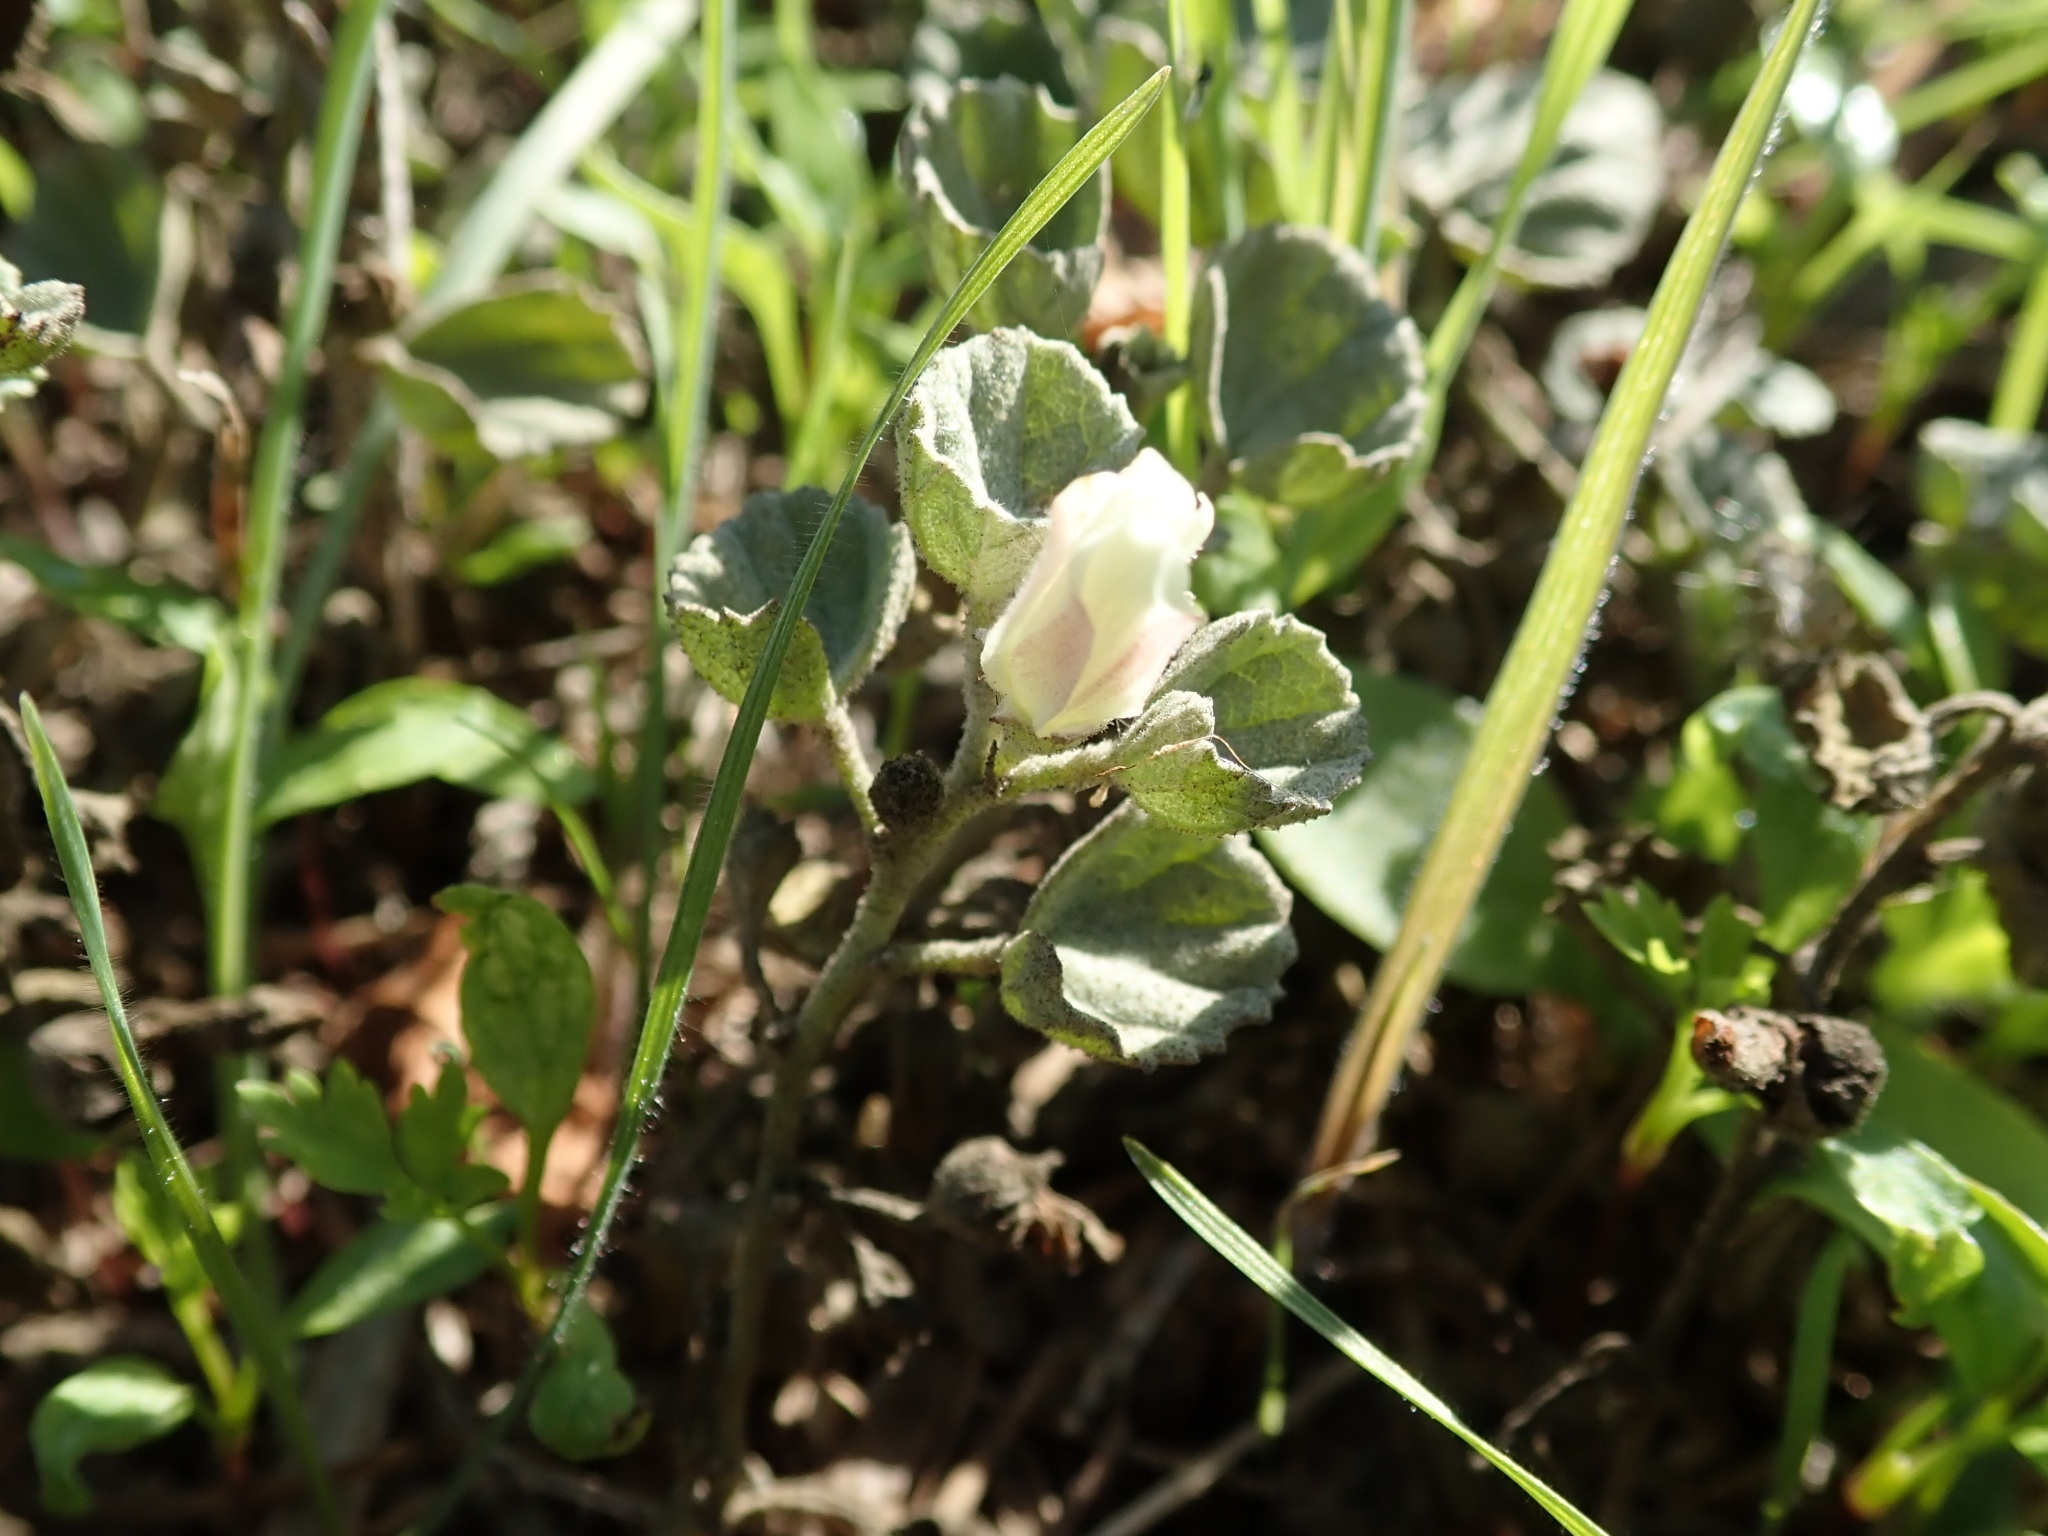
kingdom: Plantae
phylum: Tracheophyta
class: Magnoliopsida
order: Malvales
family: Malvaceae
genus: Malvella
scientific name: Malvella leprosa
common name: Alkali-mallow
